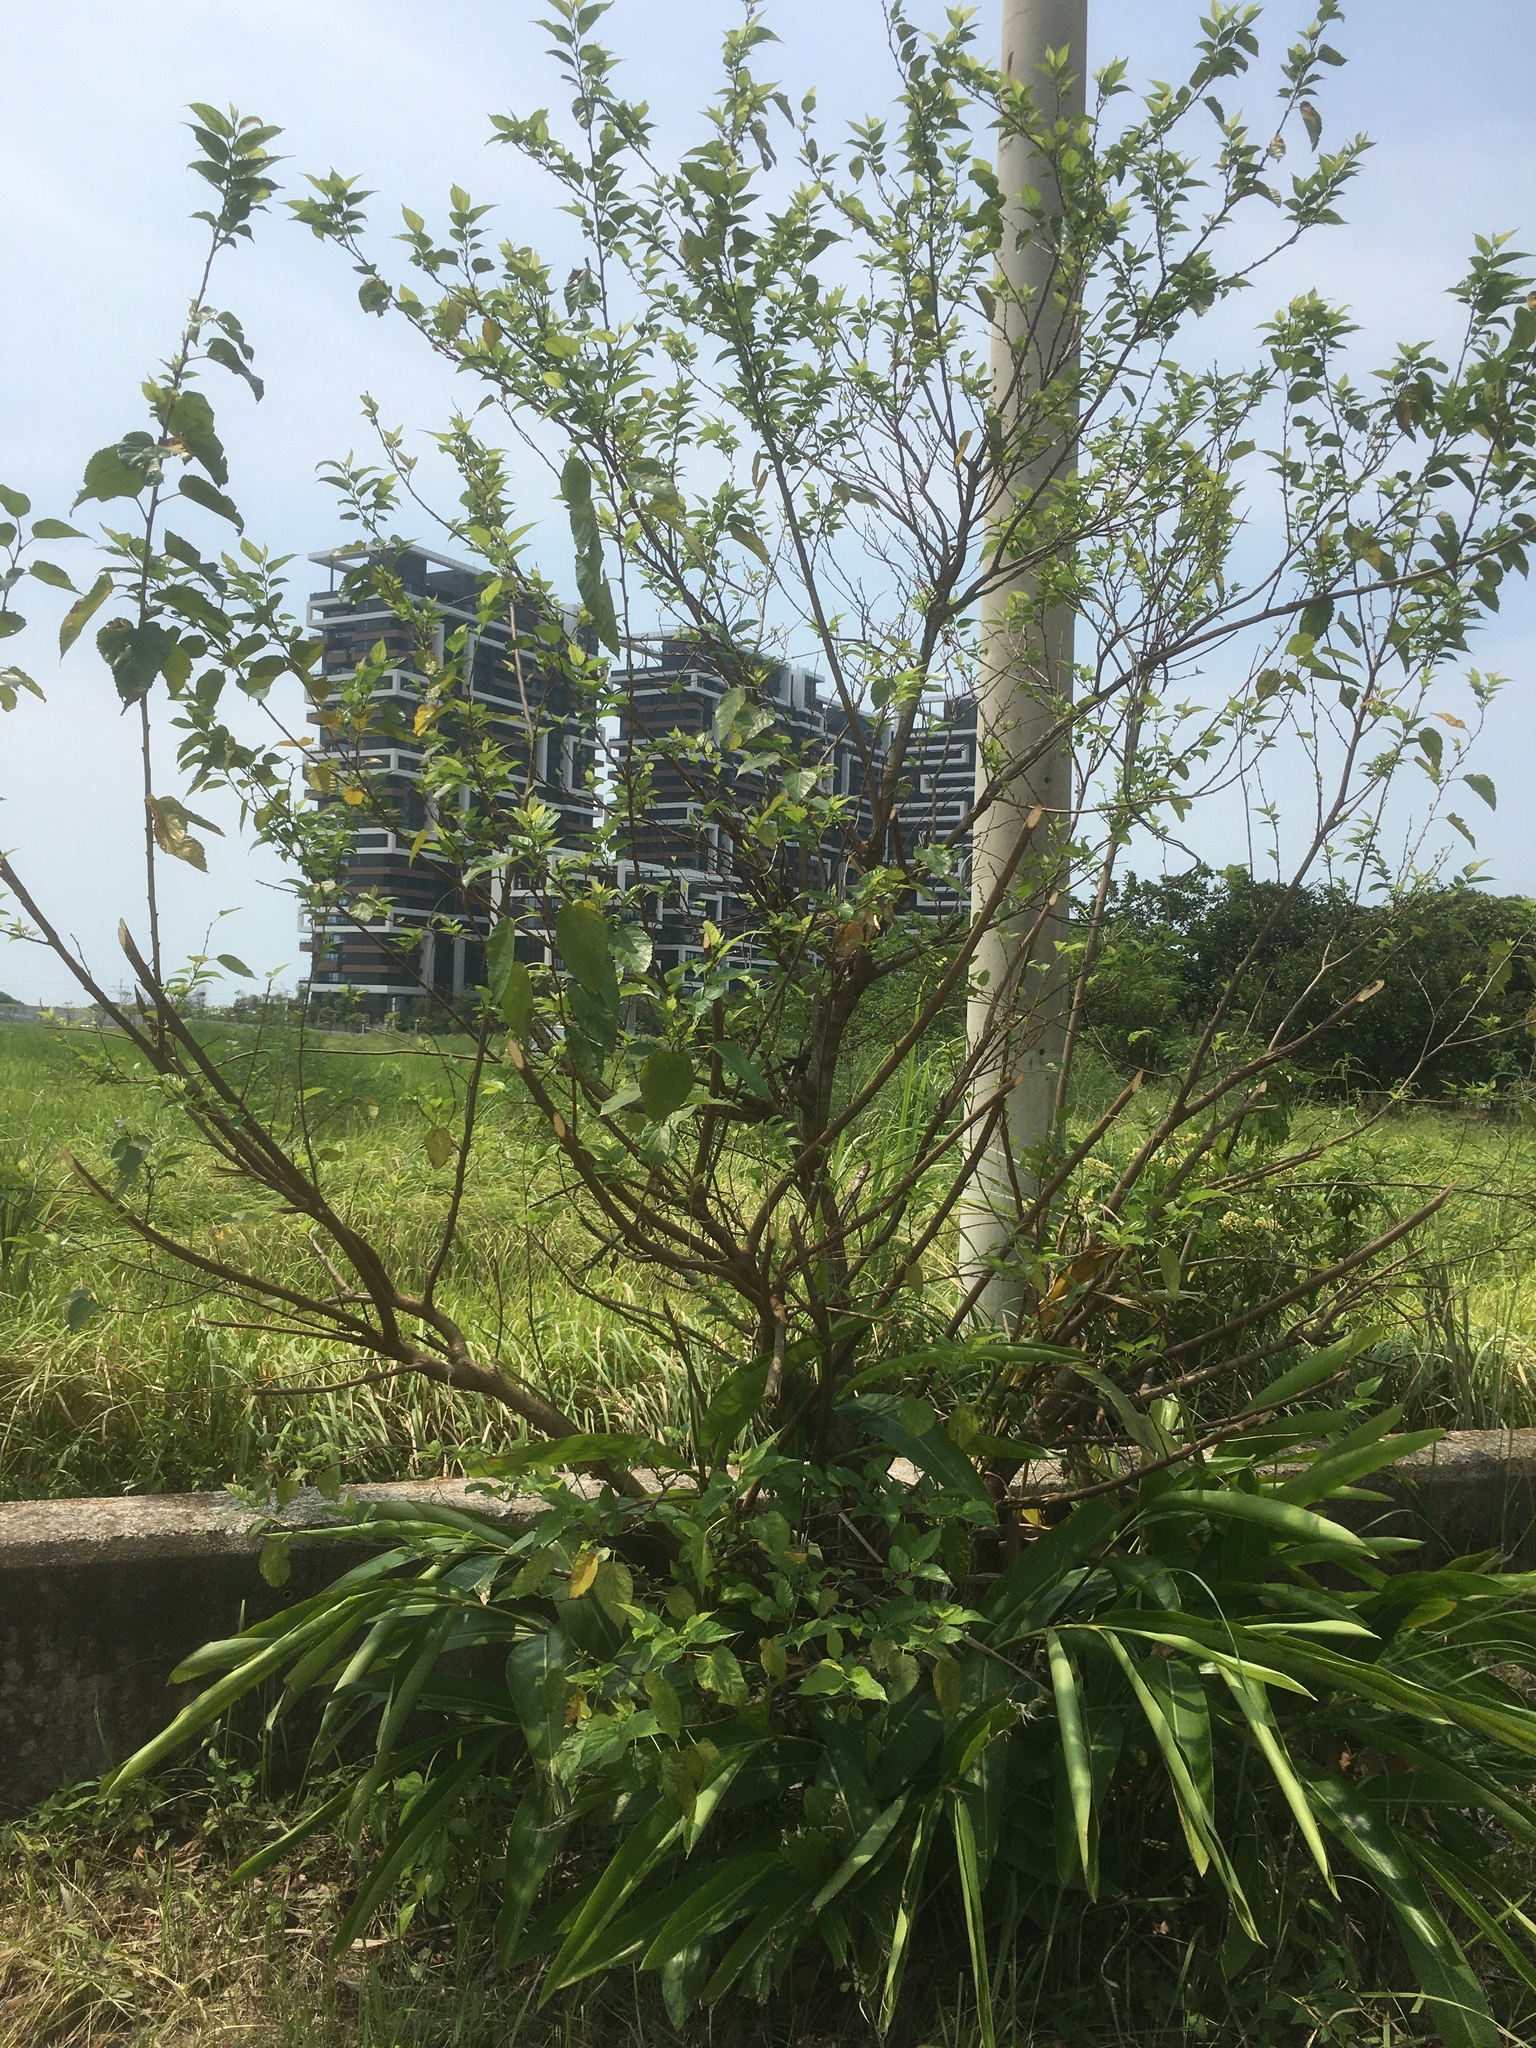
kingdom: Plantae
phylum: Tracheophyta
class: Liliopsida
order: Zingiberales
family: Zingiberaceae
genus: Alpinia
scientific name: Alpinia zerumbet
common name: Shellplant
